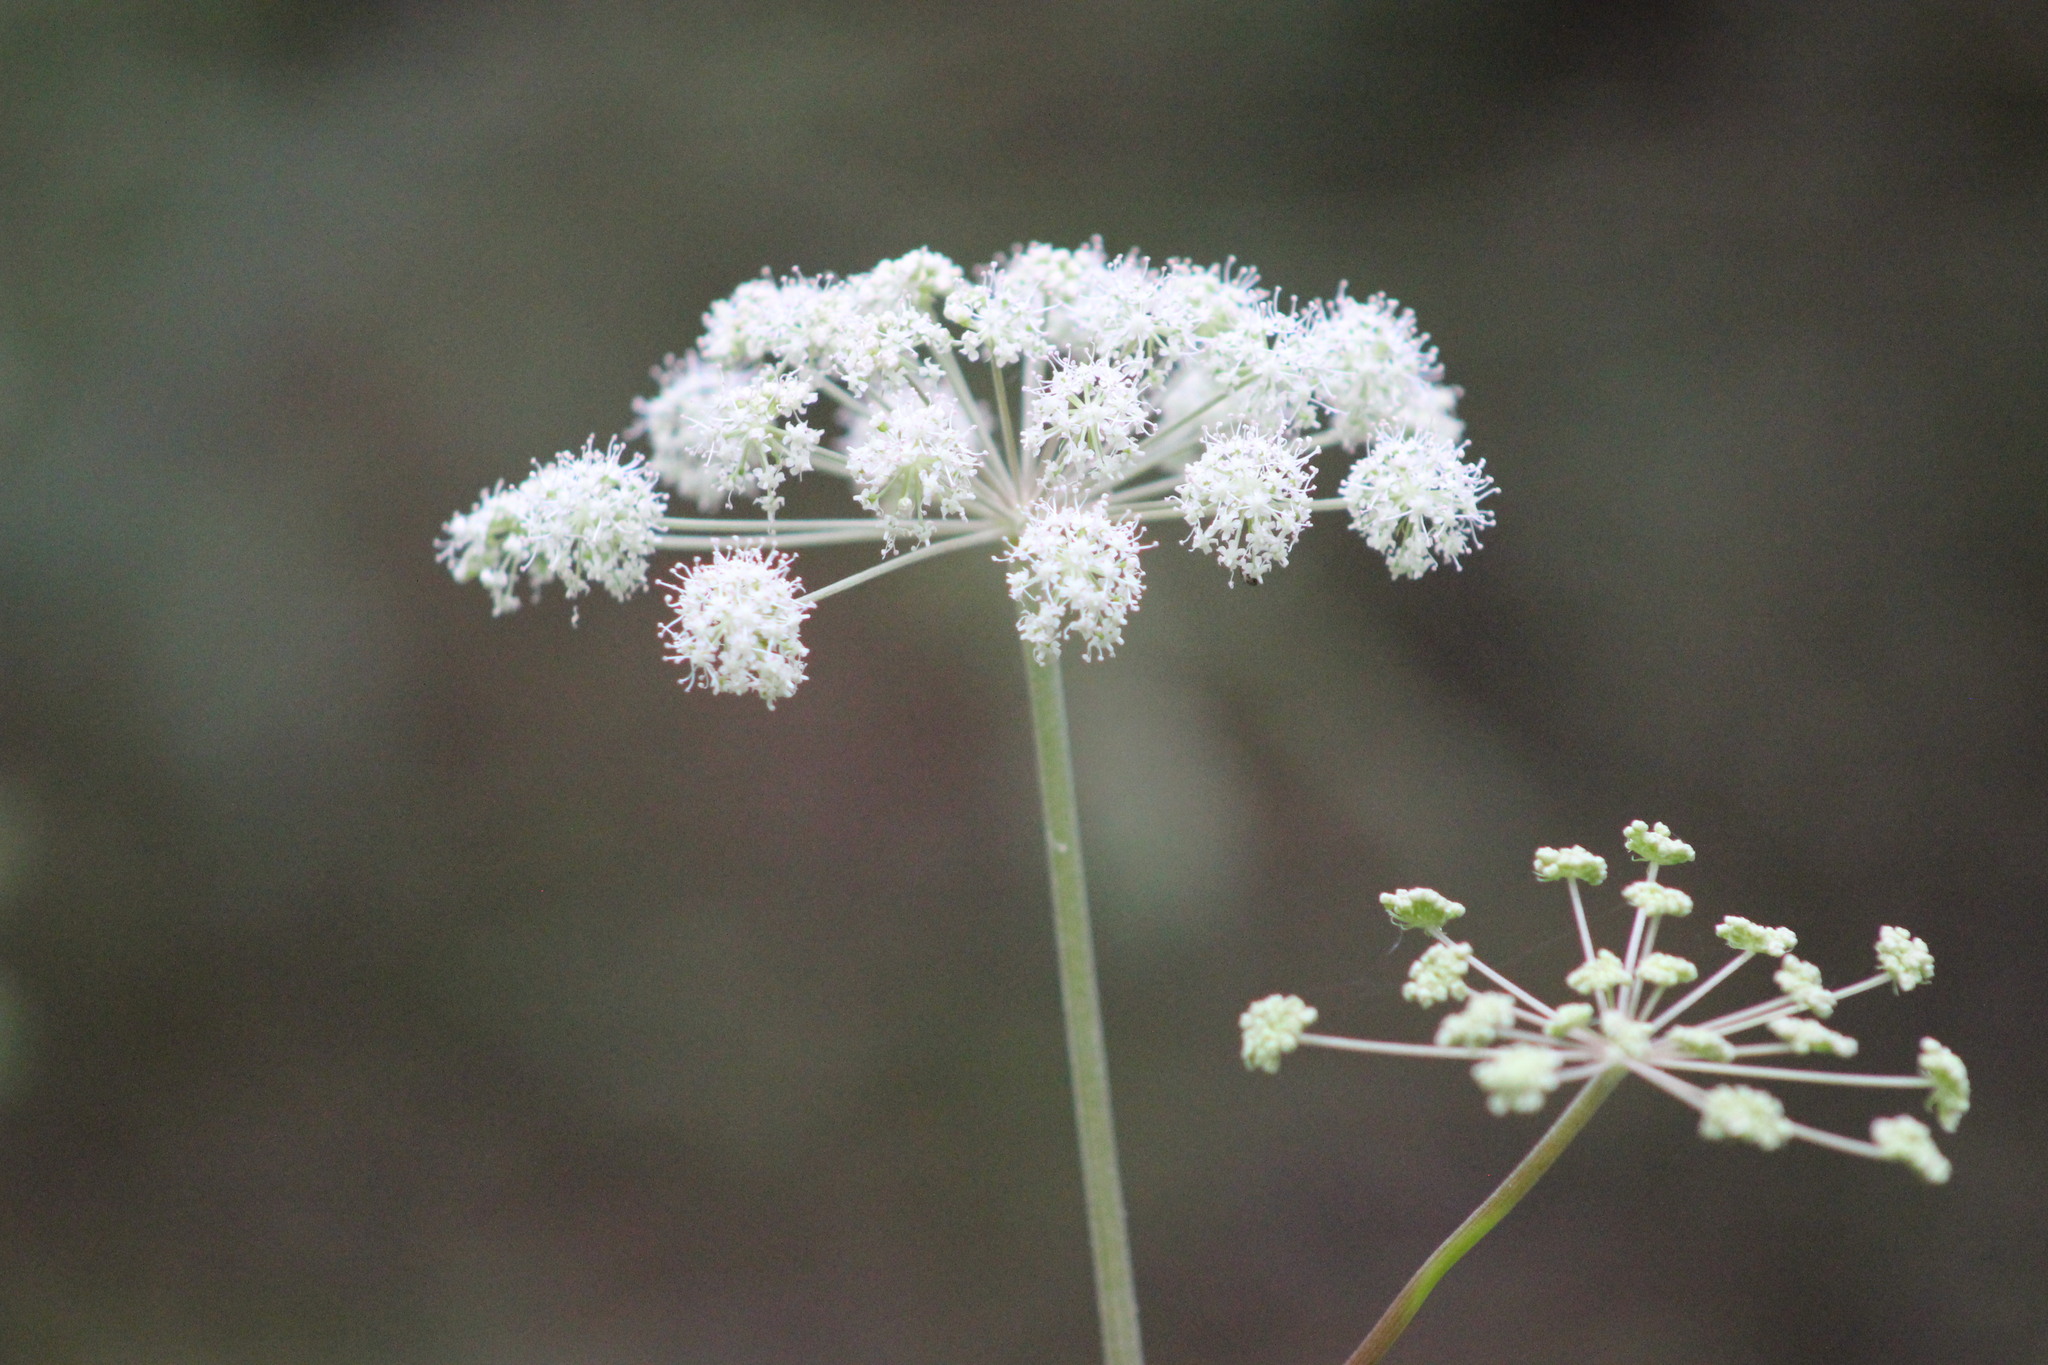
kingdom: Plantae
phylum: Tracheophyta
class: Magnoliopsida
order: Apiales
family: Apiaceae
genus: Angelica
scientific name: Angelica sylvestris
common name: Wild angelica
